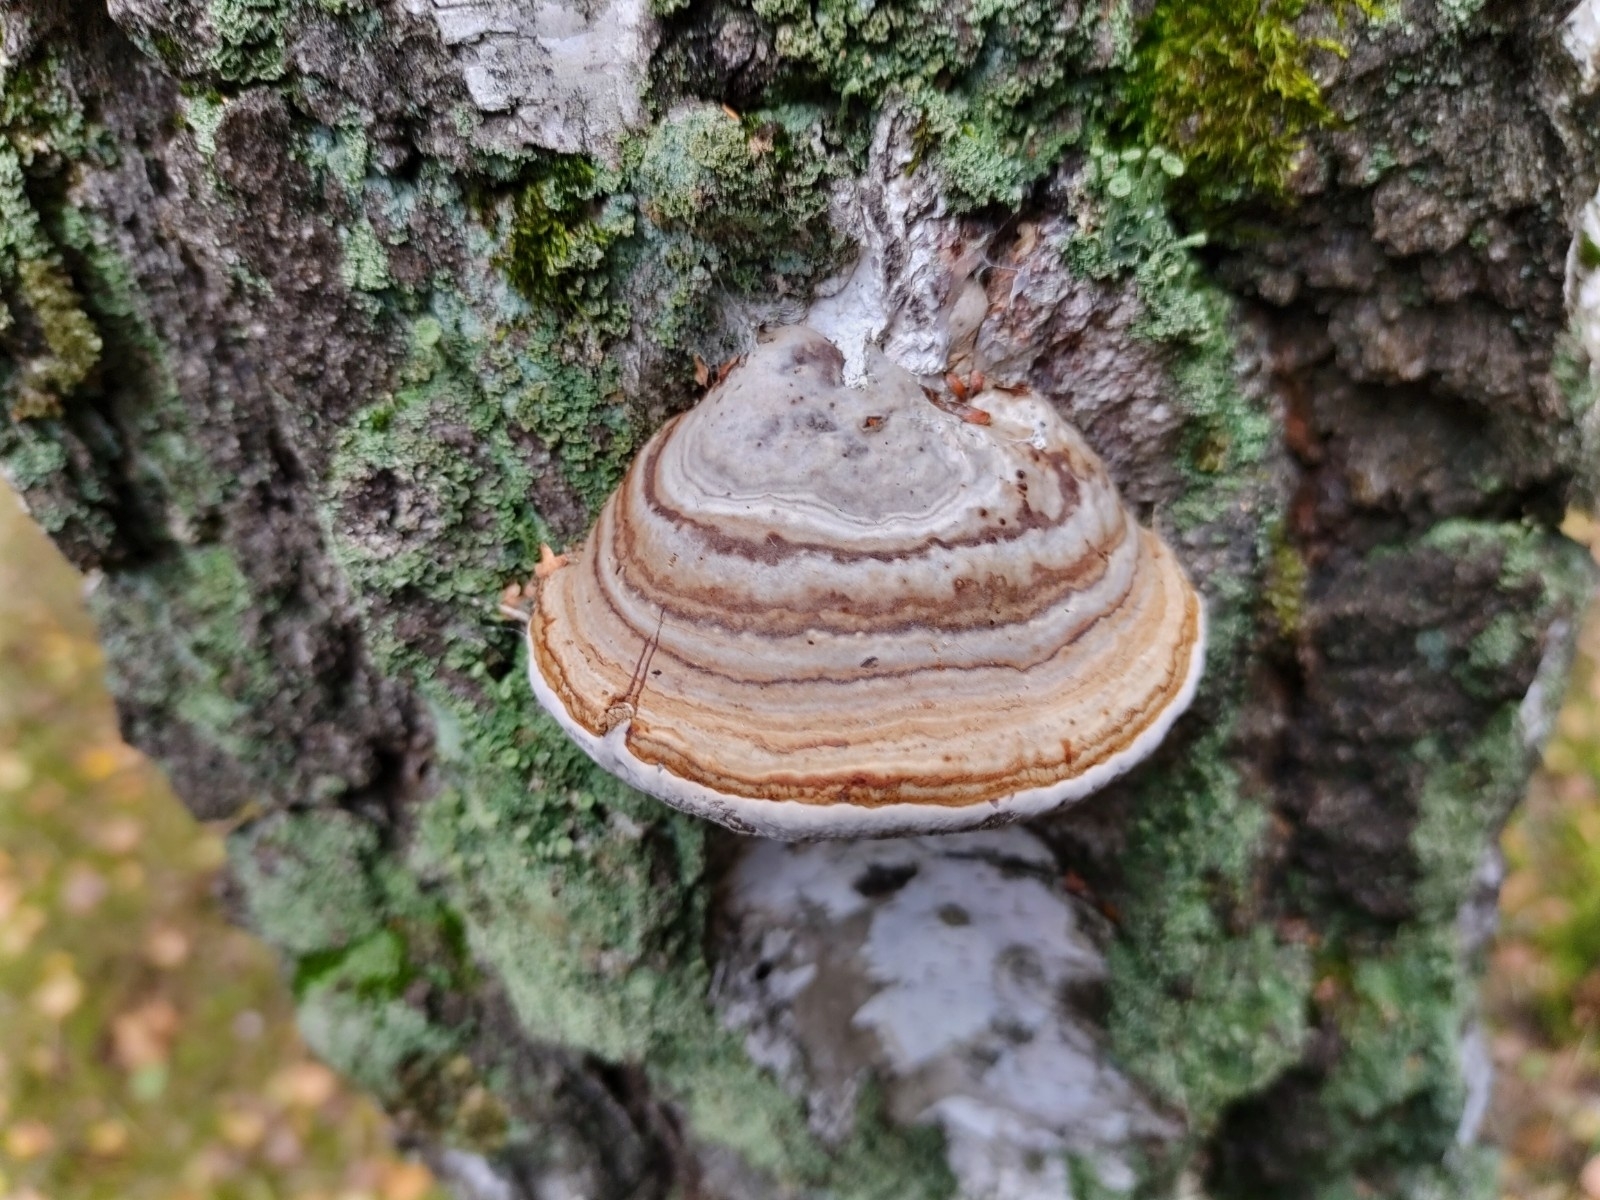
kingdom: Fungi
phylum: Basidiomycota
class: Agaricomycetes
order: Polyporales
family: Polyporaceae
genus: Fomes
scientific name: Fomes fomentarius
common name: Hoof fungus
